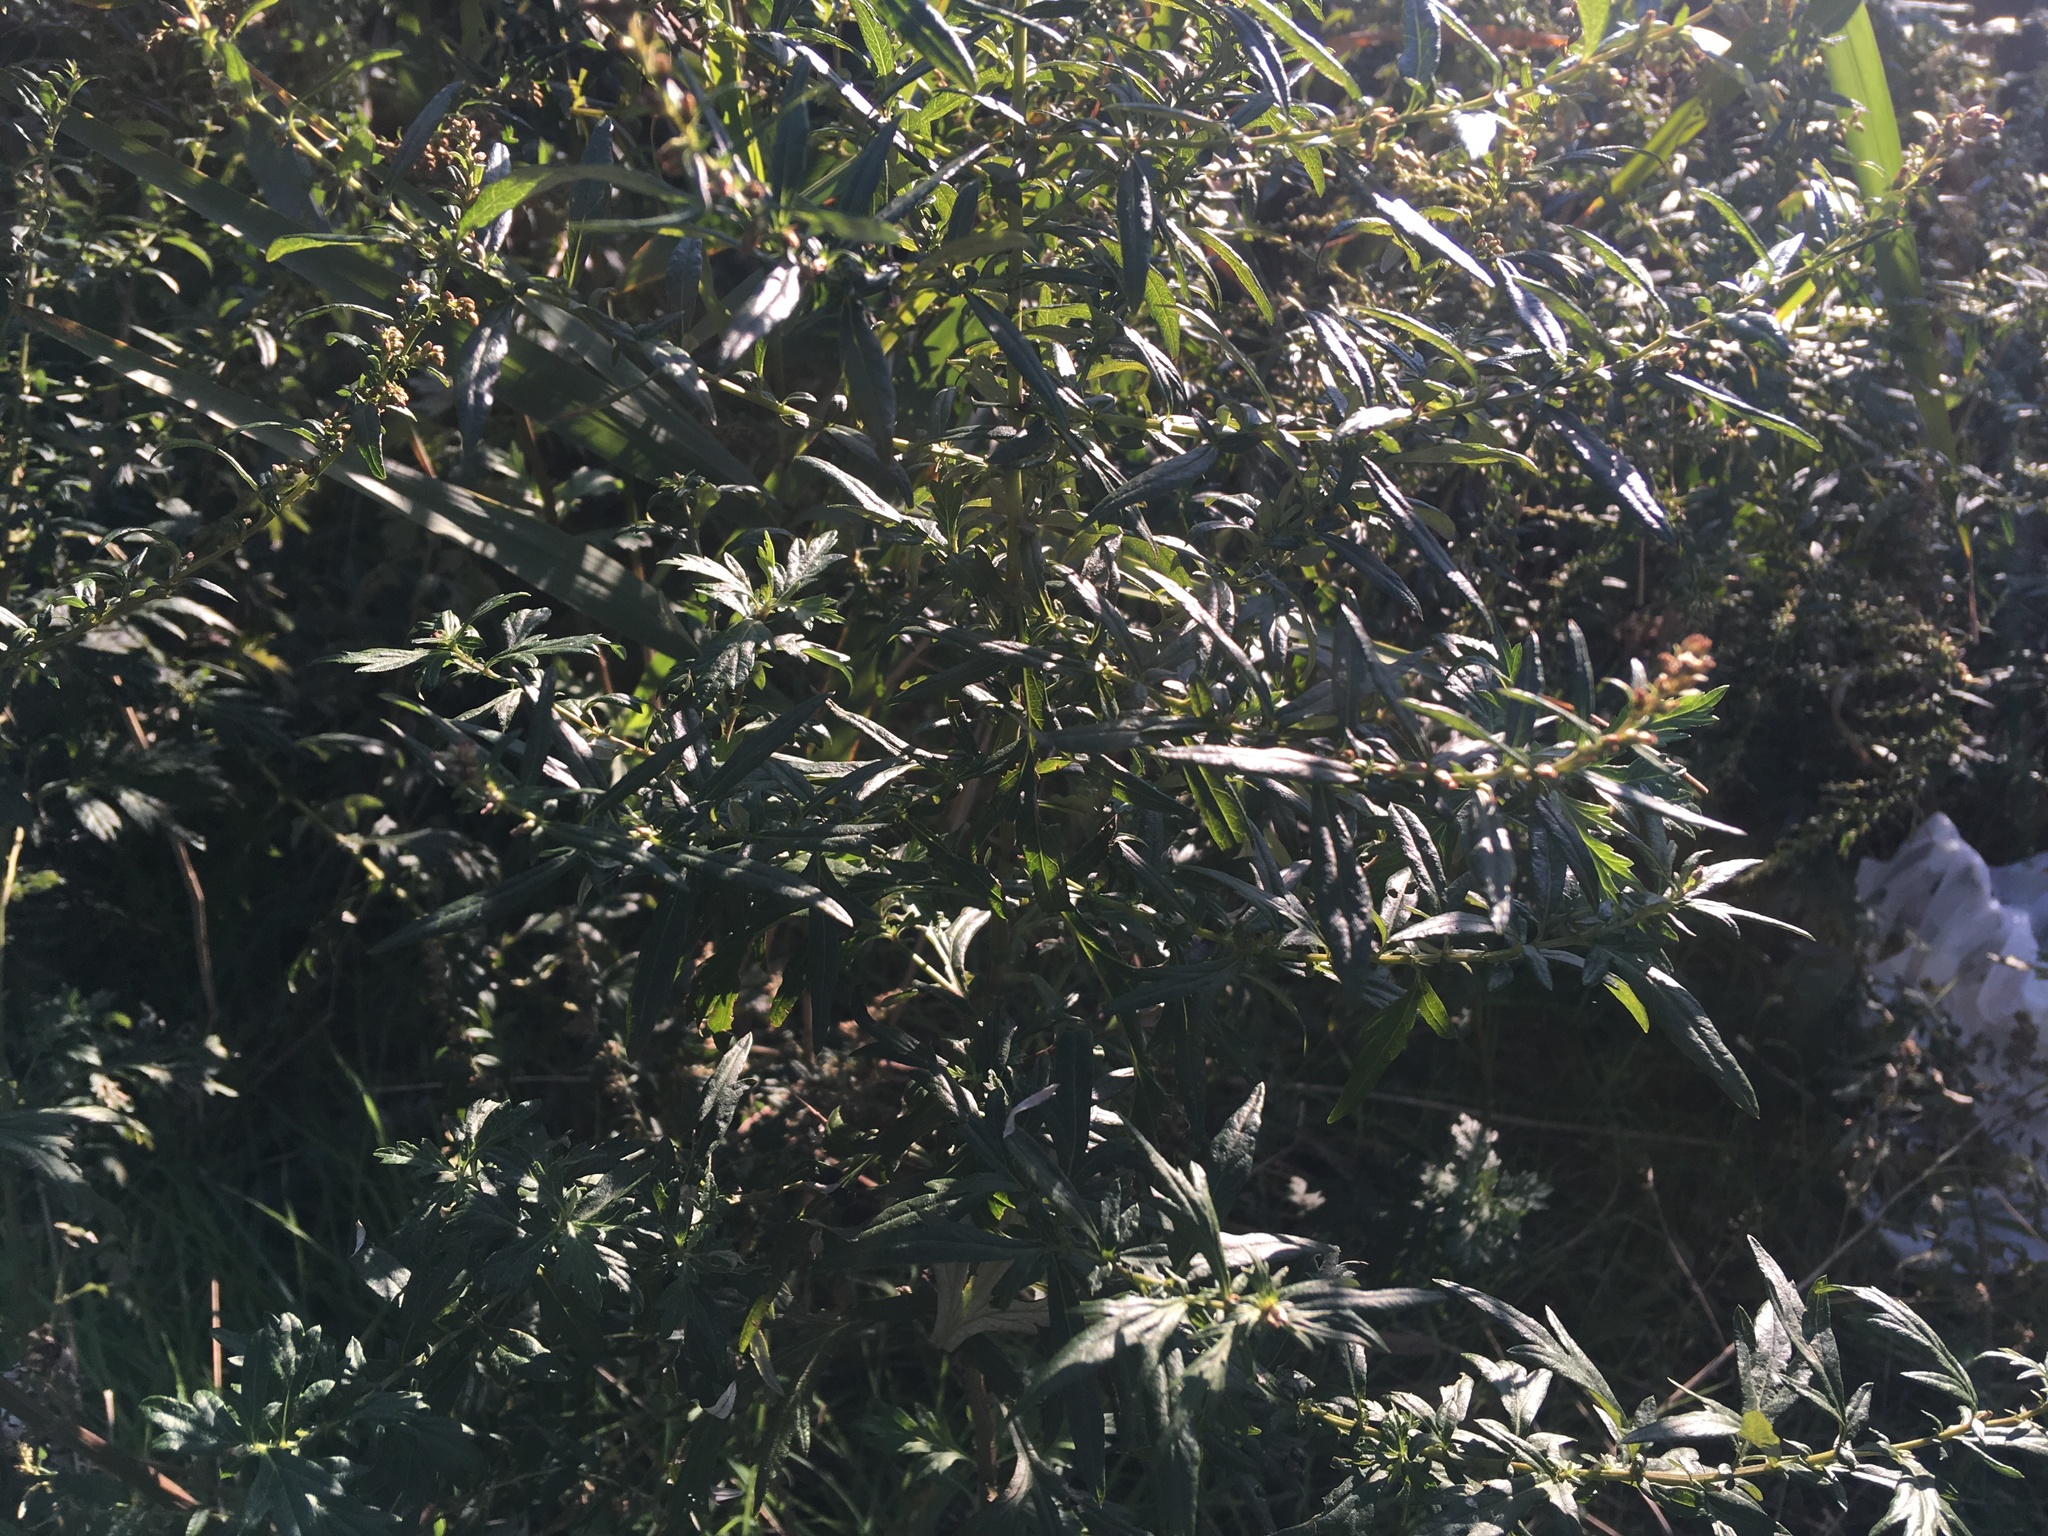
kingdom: Plantae
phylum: Tracheophyta
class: Magnoliopsida
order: Asterales
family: Asteraceae
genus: Artemisia
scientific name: Artemisia vulgaris
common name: Mugwort
